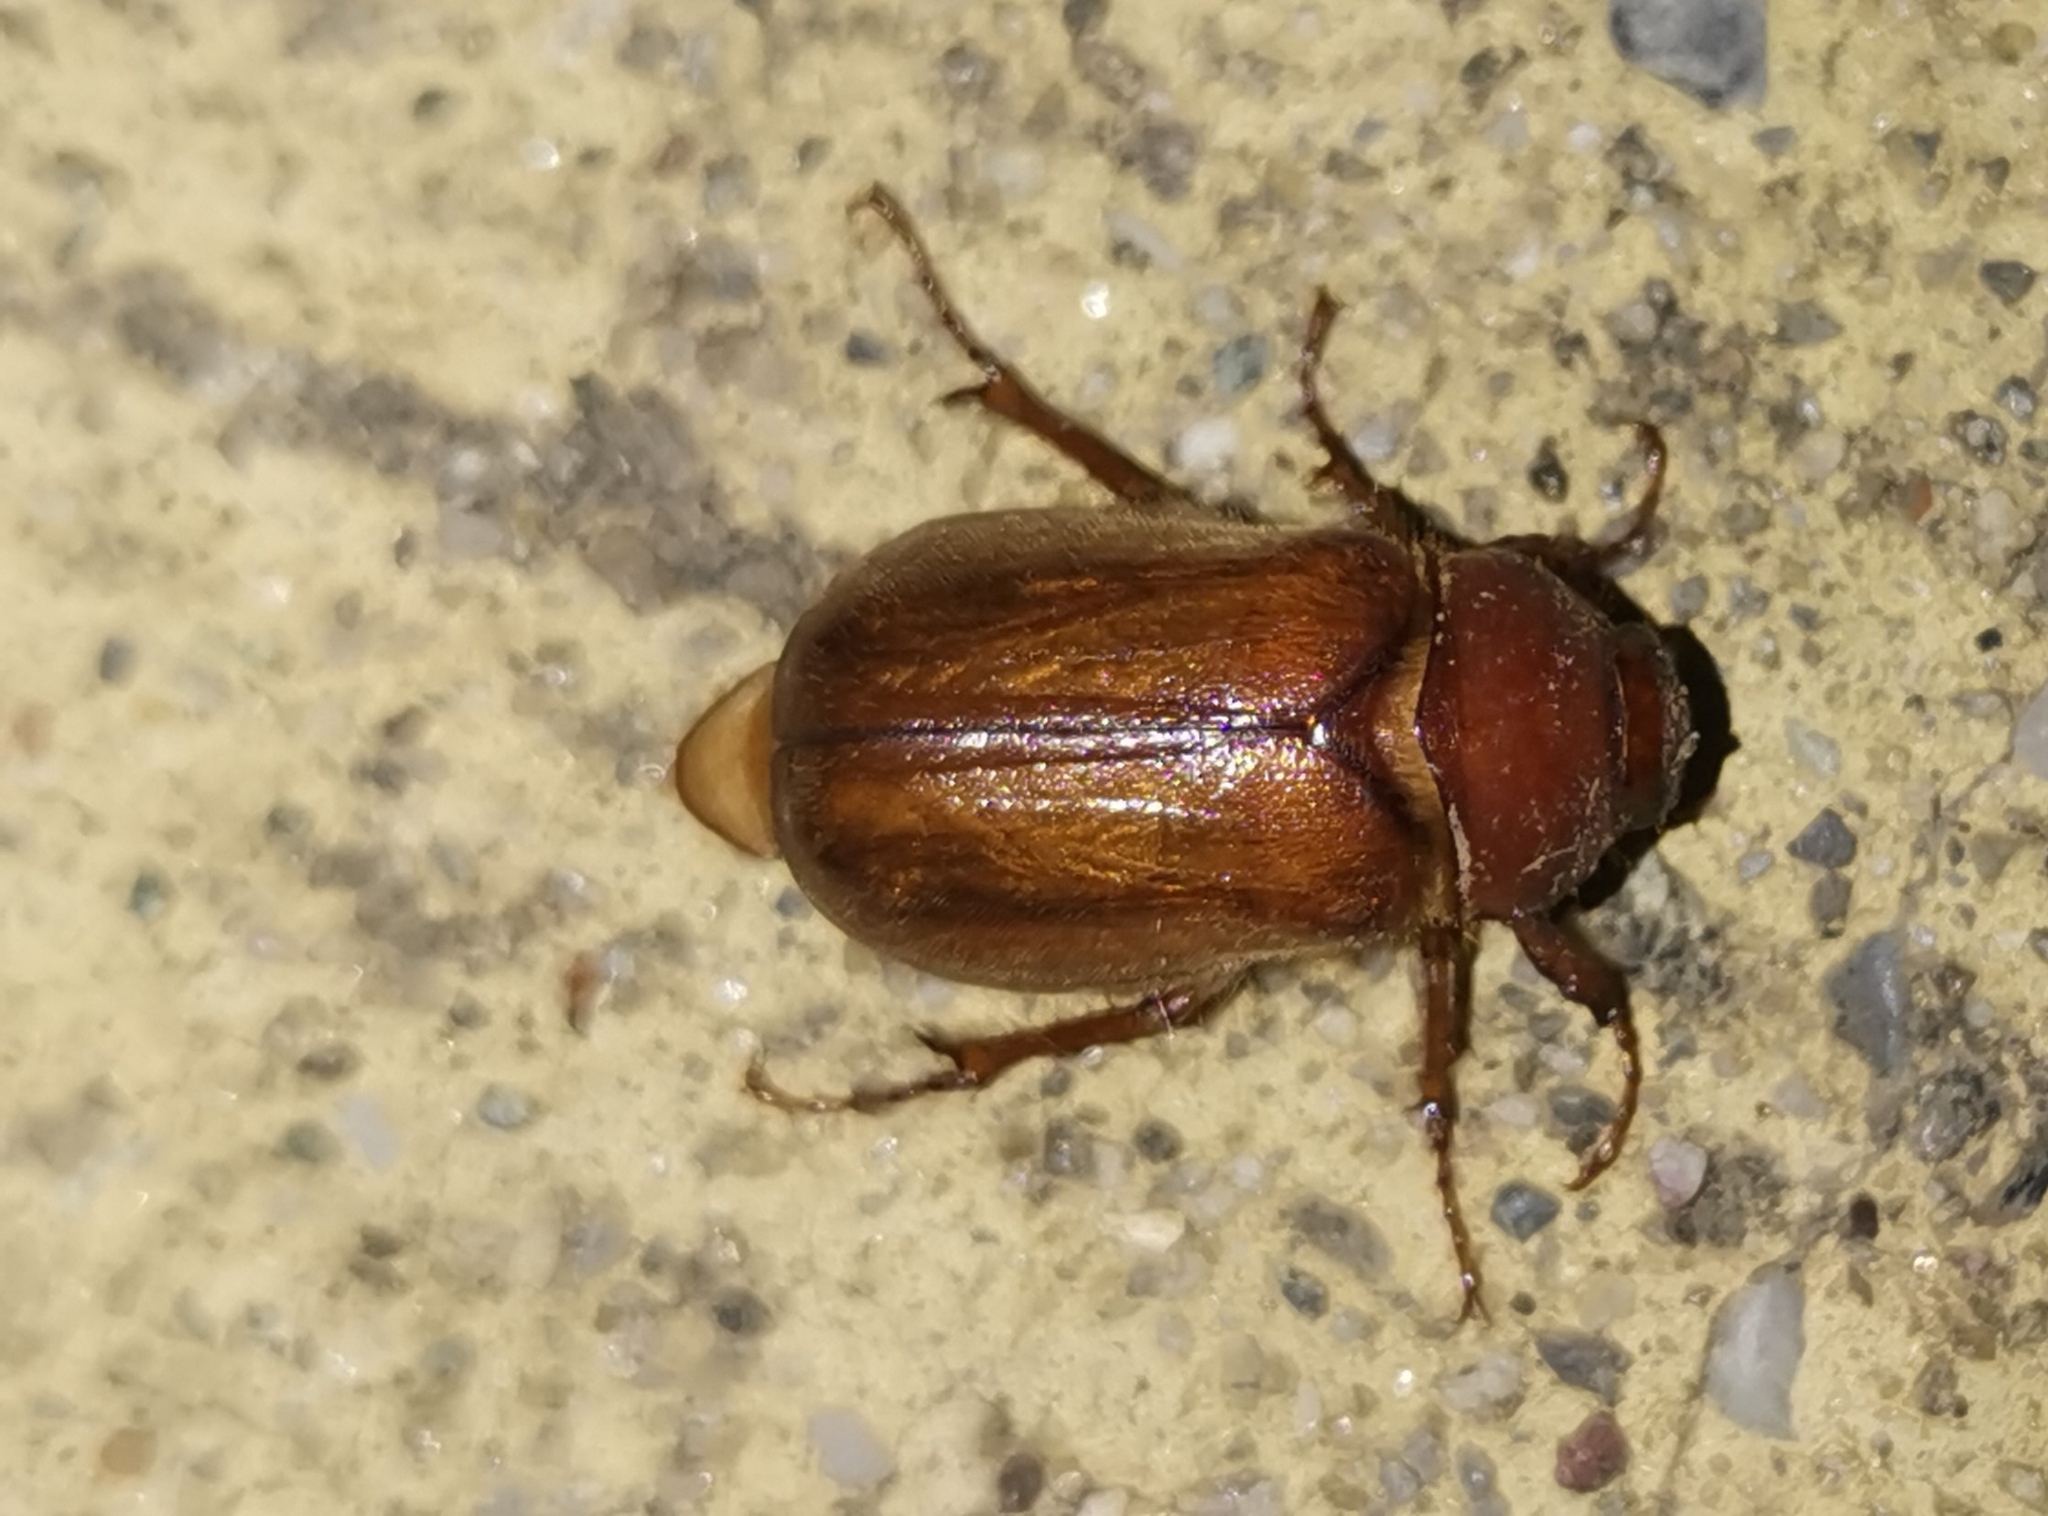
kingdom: Animalia
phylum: Arthropoda
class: Insecta
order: Coleoptera
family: Scarabaeidae
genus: Amphimallon
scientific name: Amphimallon majale
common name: European chafer
